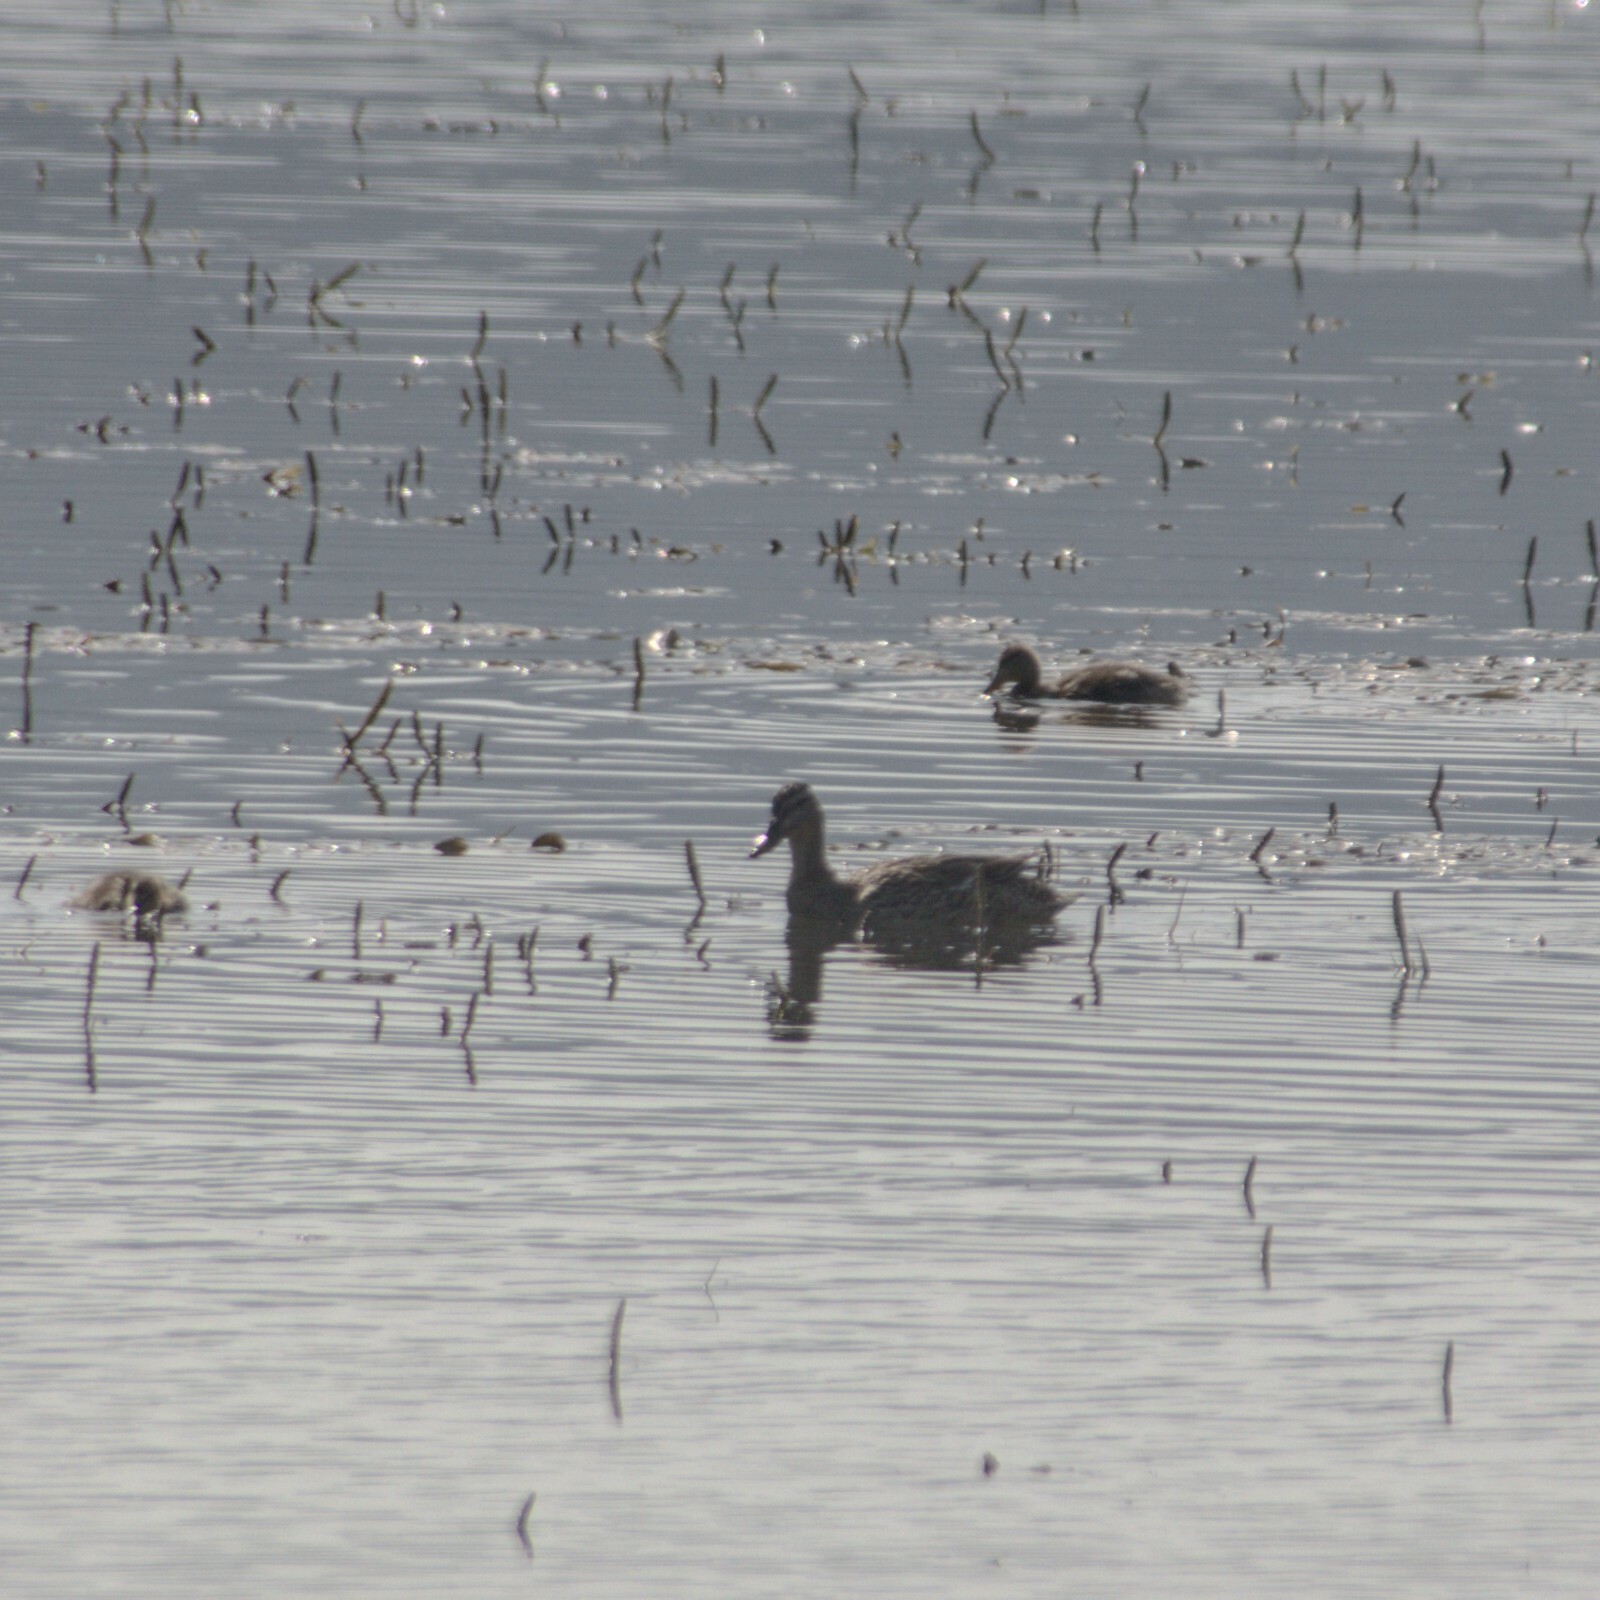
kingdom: Animalia
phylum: Chordata
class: Aves
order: Anseriformes
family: Anatidae
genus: Anas
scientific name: Anas platyrhynchos
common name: Mallard
